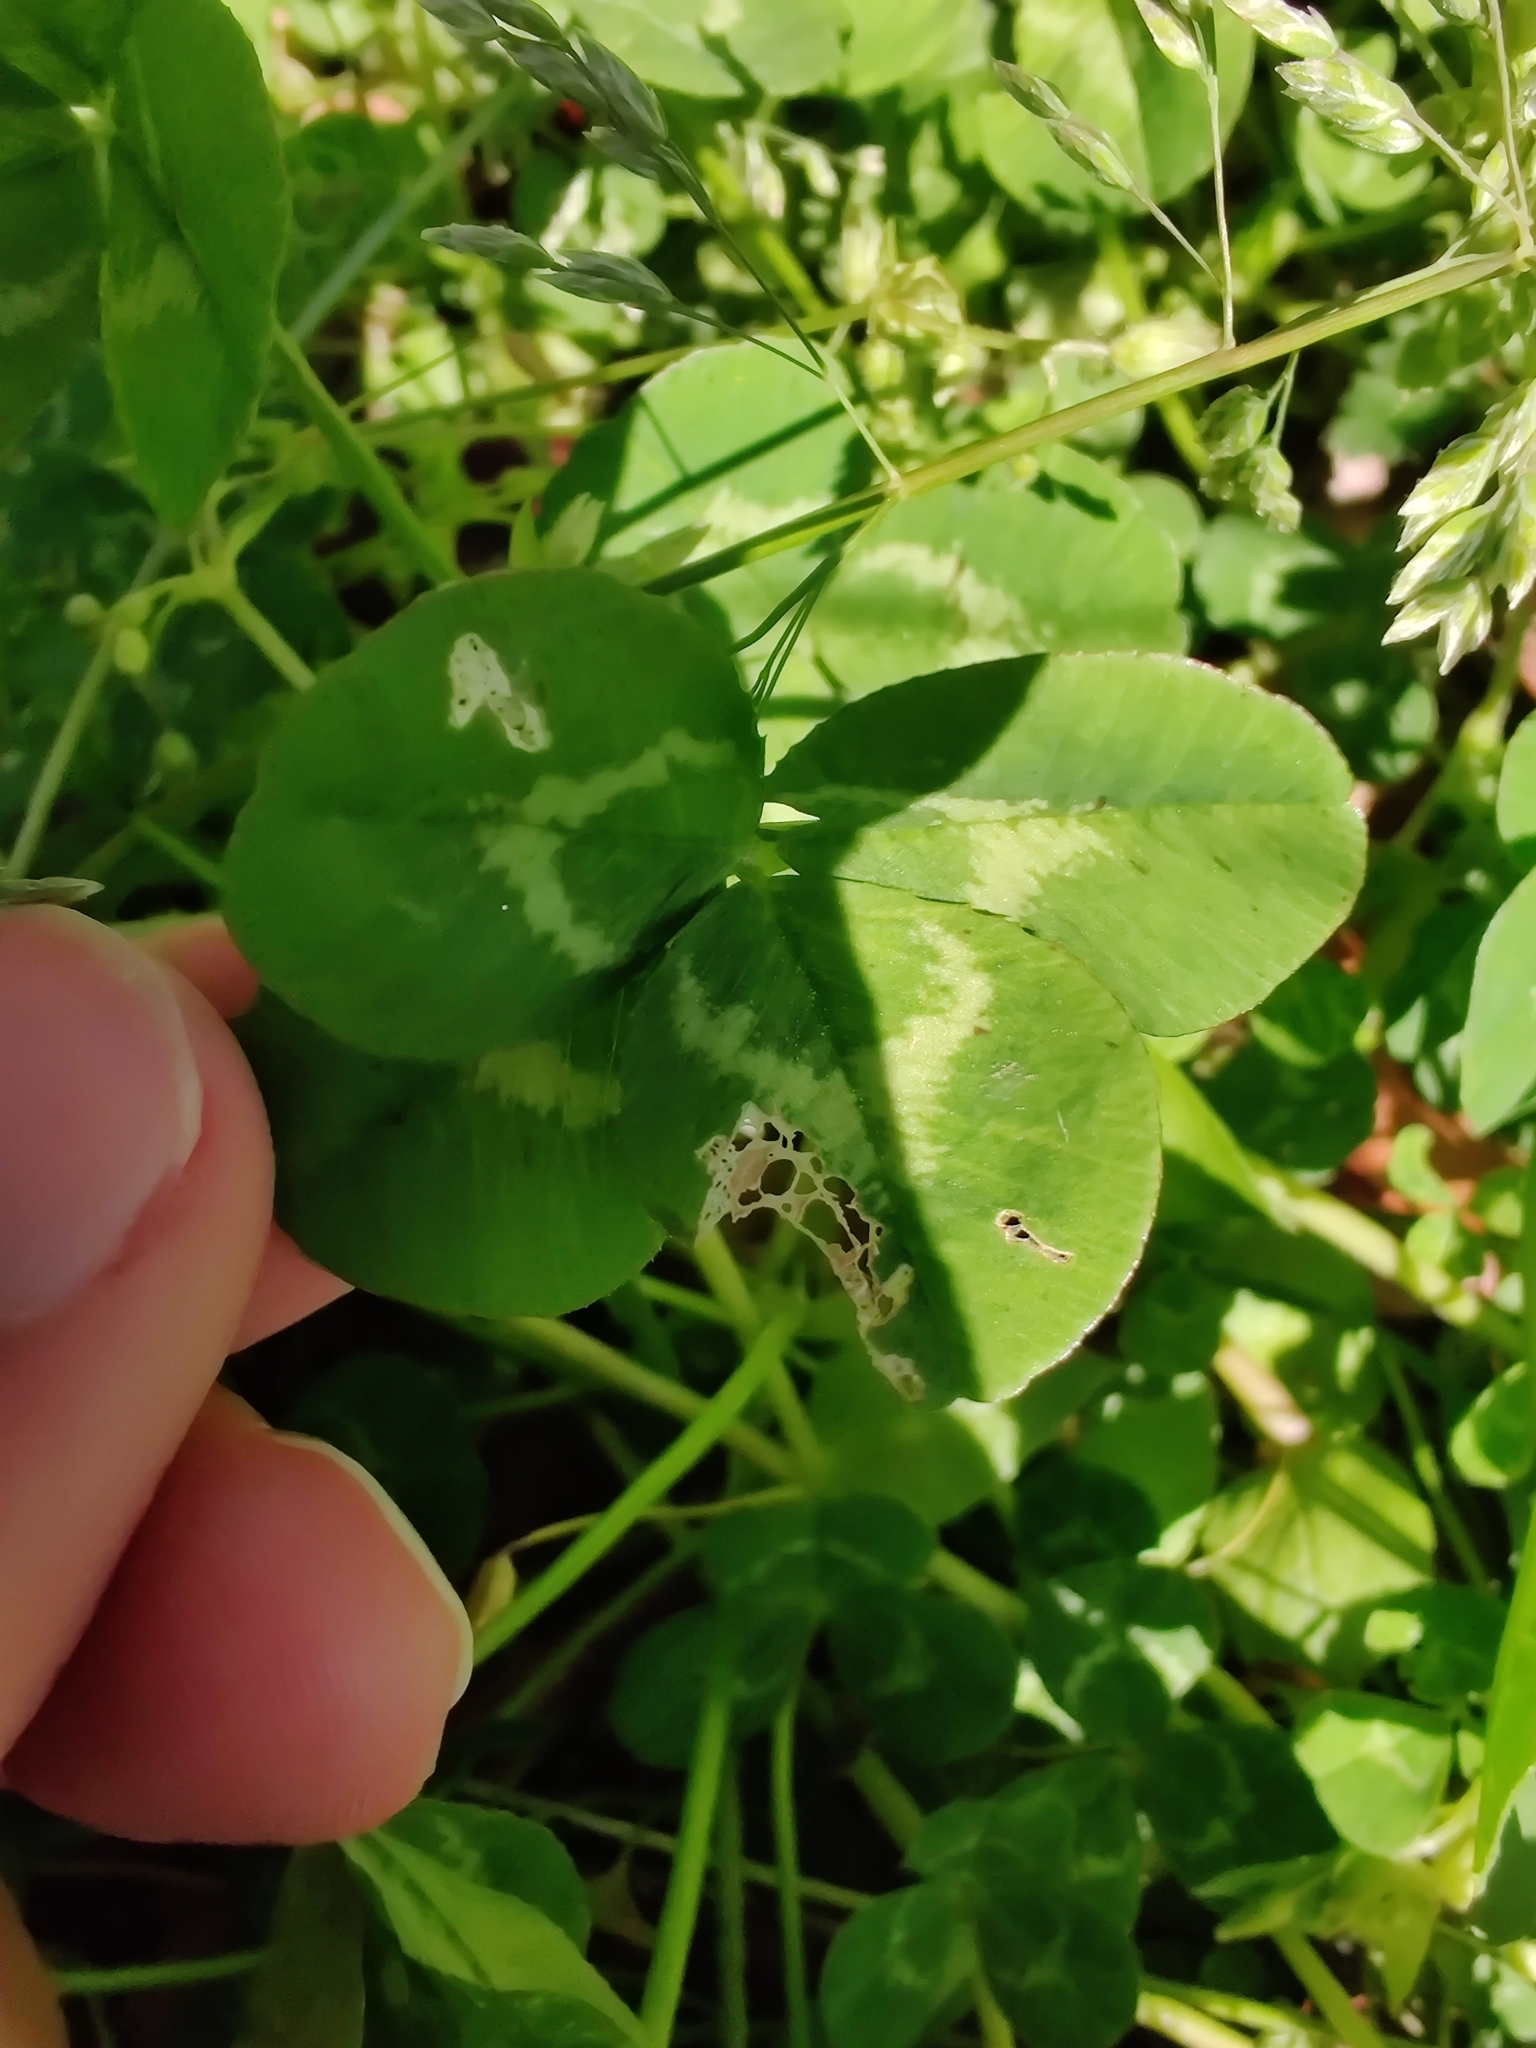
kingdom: Plantae
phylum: Tracheophyta
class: Magnoliopsida
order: Fabales
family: Fabaceae
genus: Trifolium
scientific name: Trifolium repens
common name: White clover
